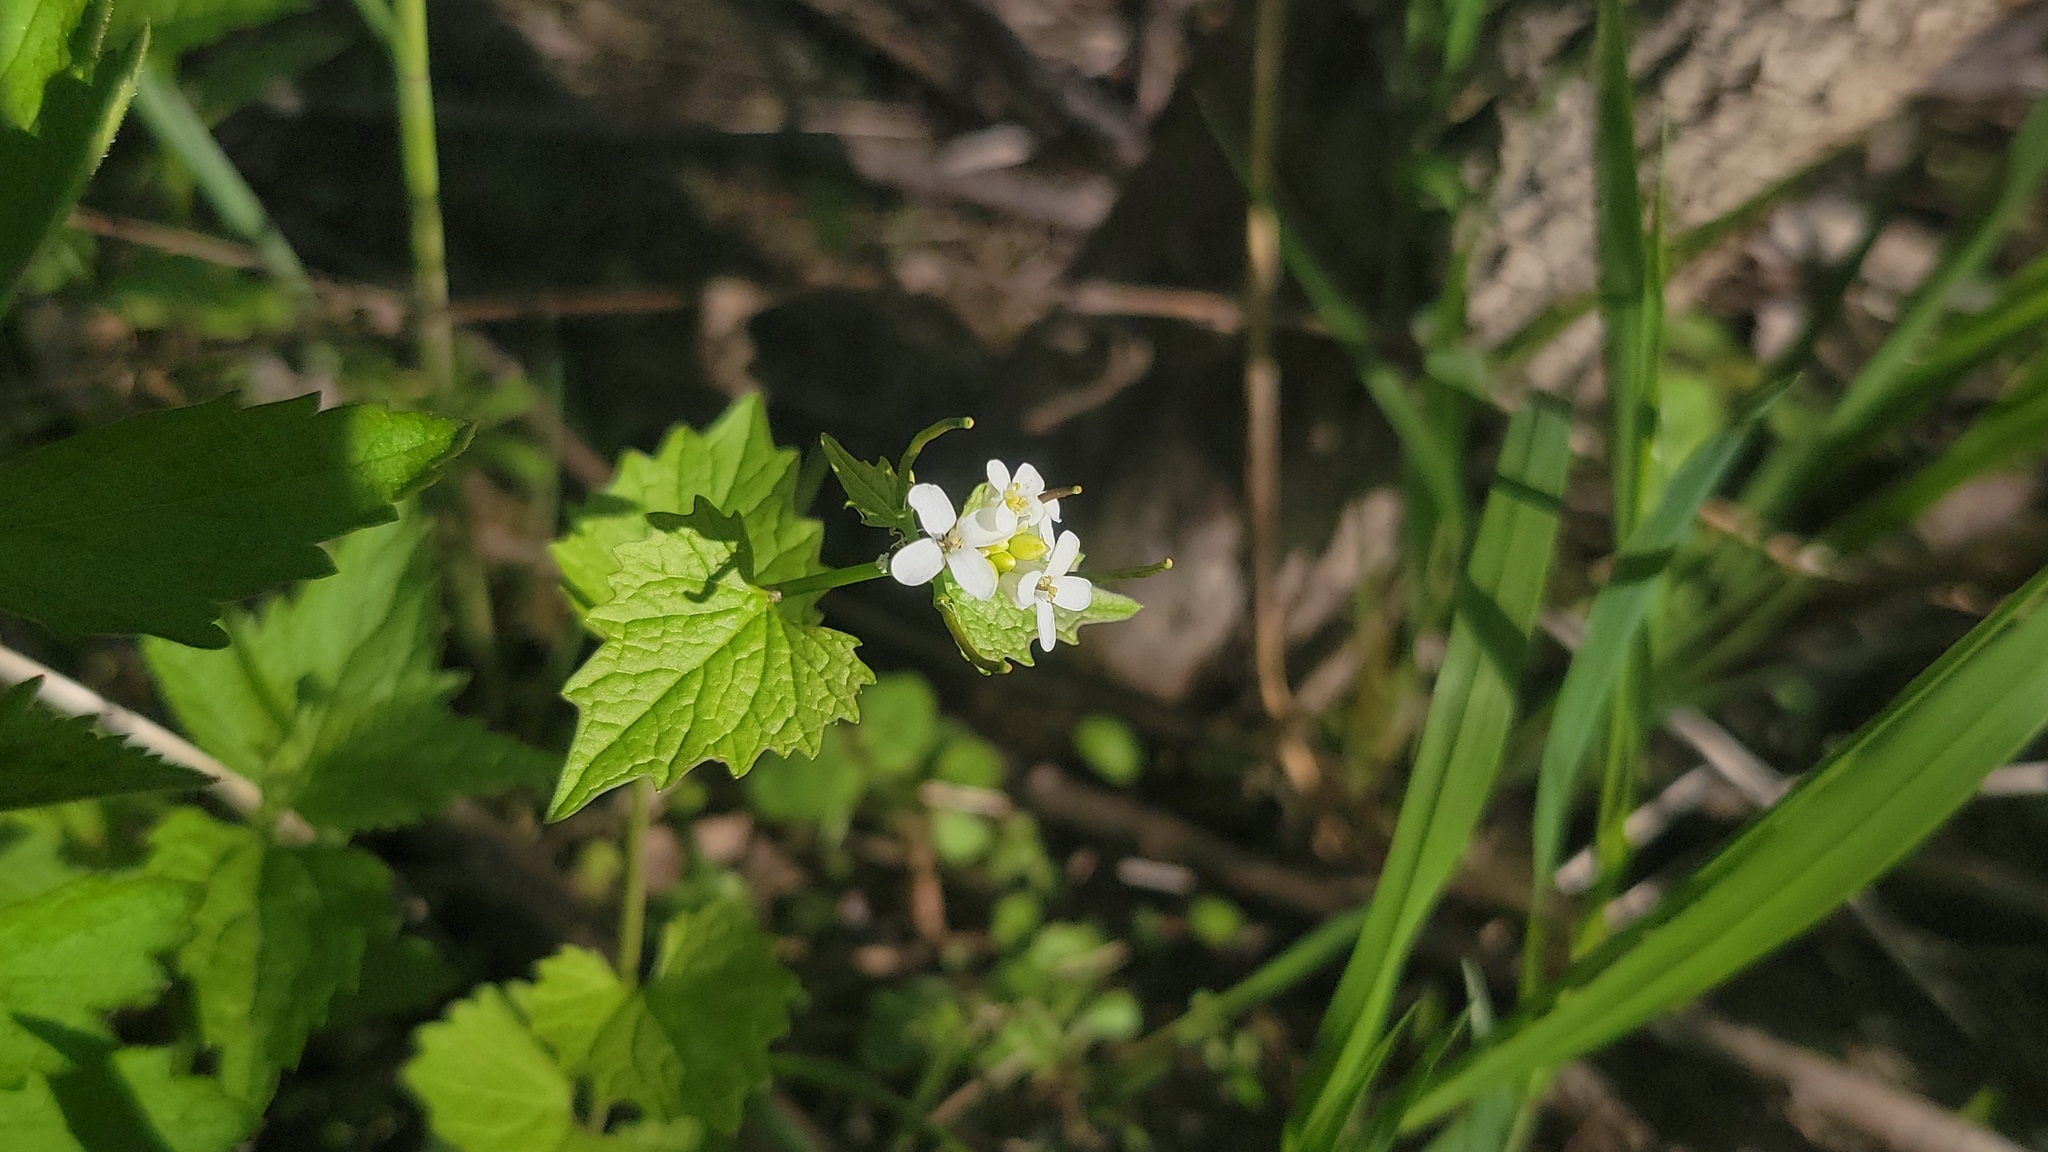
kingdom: Plantae
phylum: Tracheophyta
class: Magnoliopsida
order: Brassicales
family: Brassicaceae
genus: Alliaria
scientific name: Alliaria petiolata
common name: Garlic mustard
